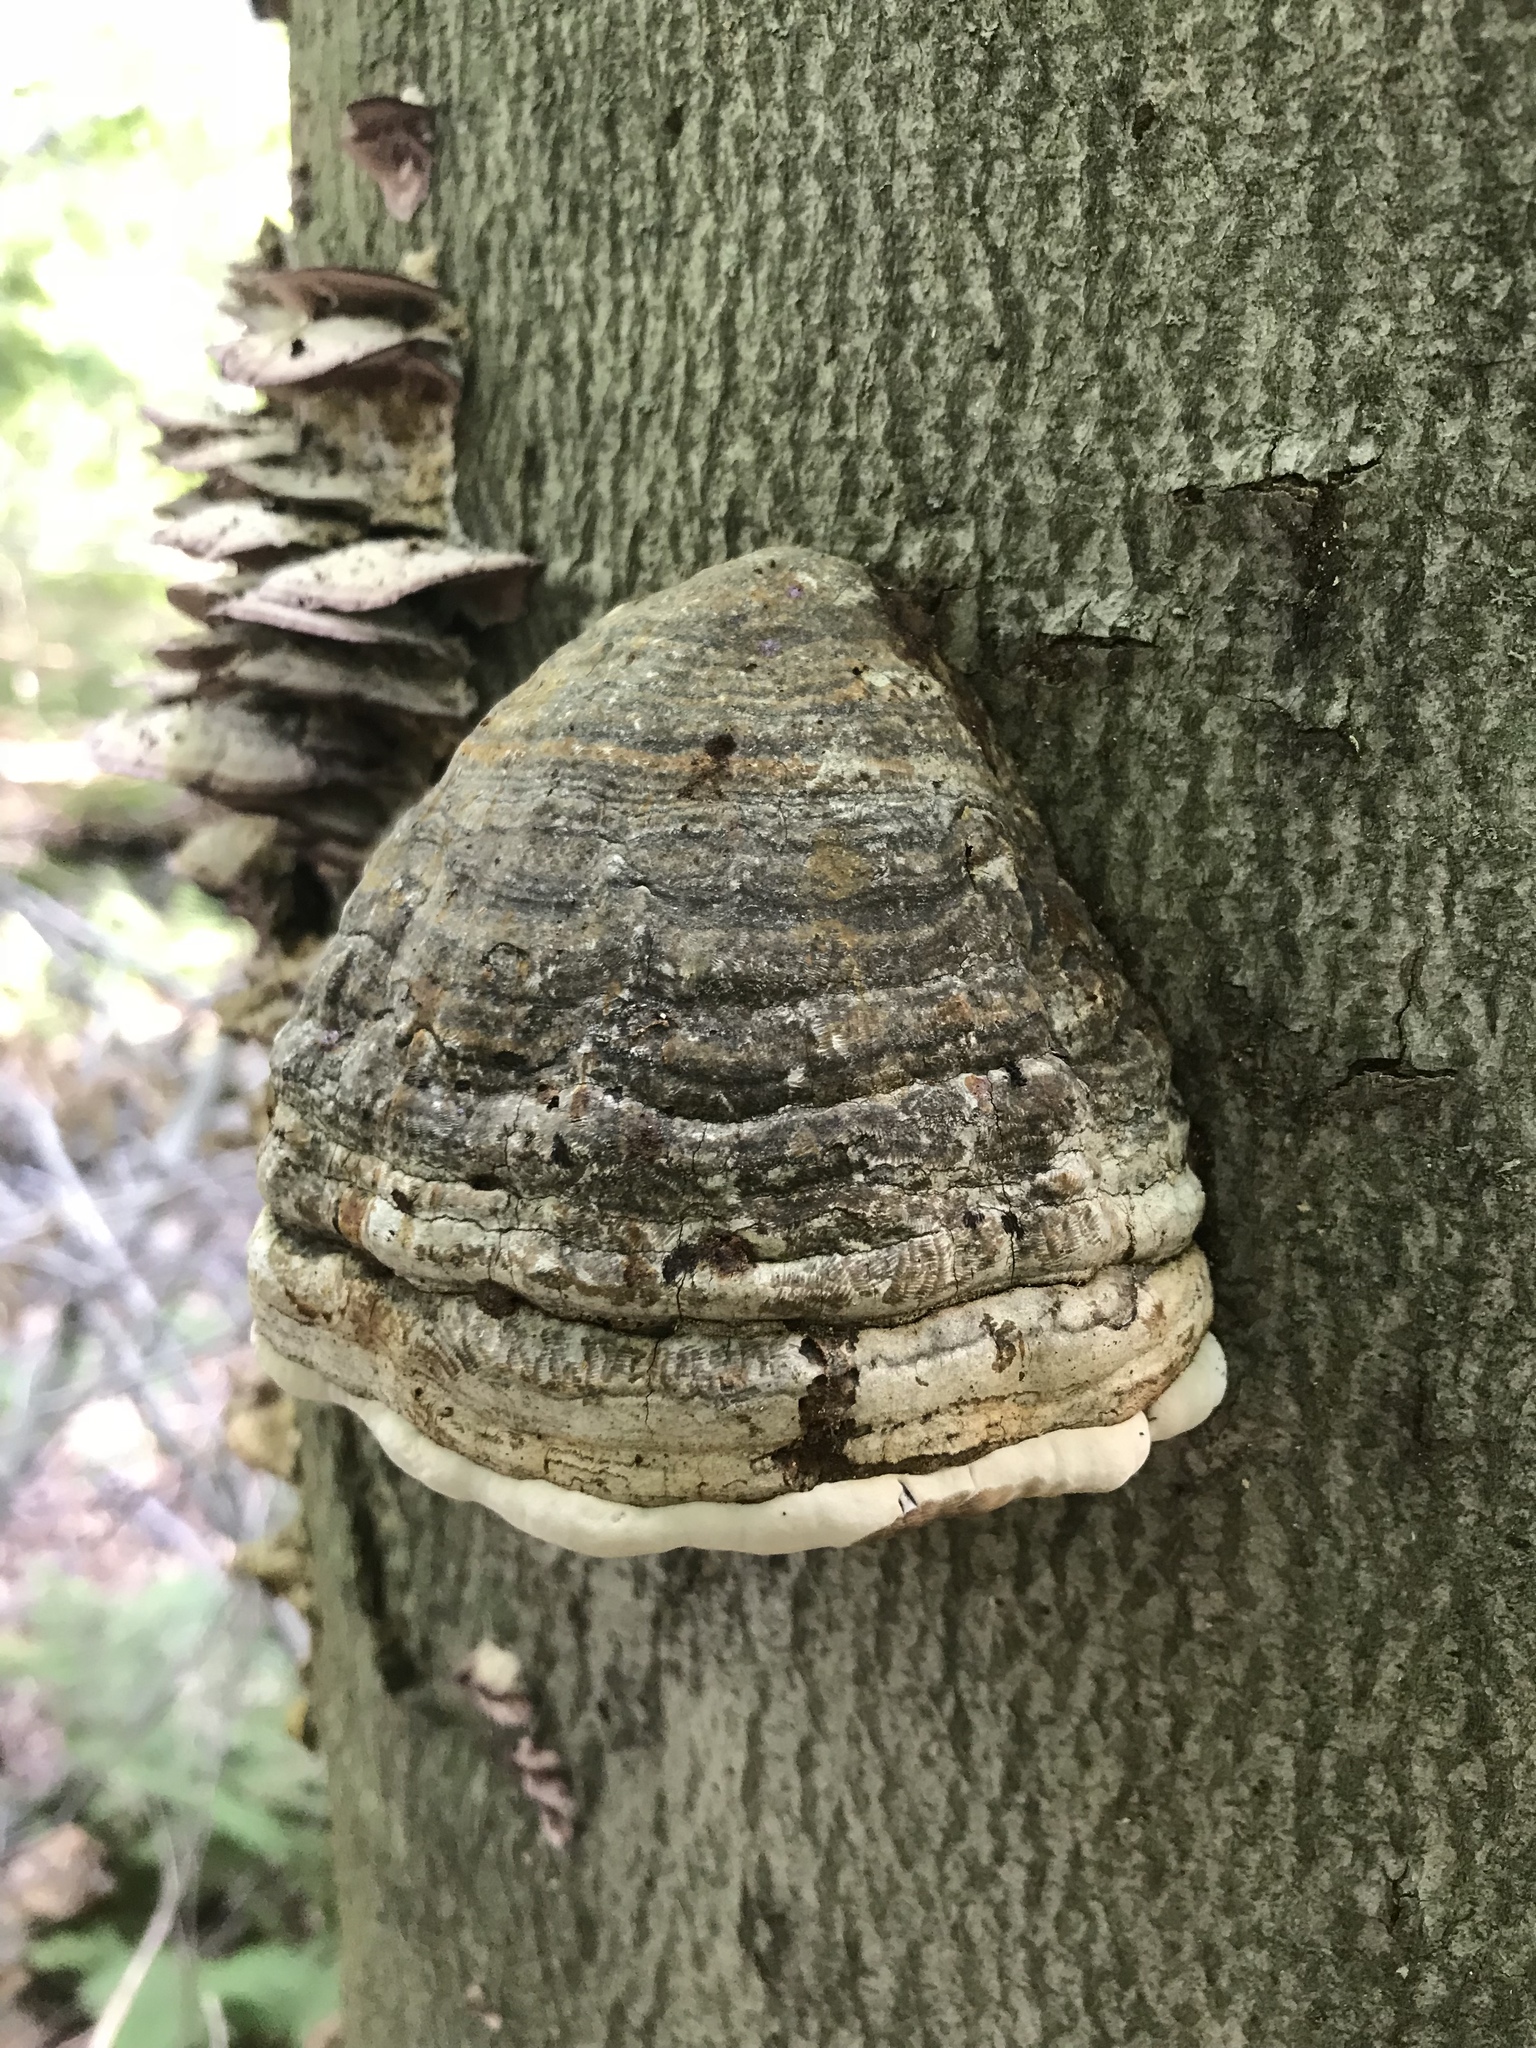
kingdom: Fungi
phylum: Basidiomycota
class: Agaricomycetes
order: Polyporales
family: Polyporaceae
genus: Fomes
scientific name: Fomes fomentarius
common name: Hoof fungus
